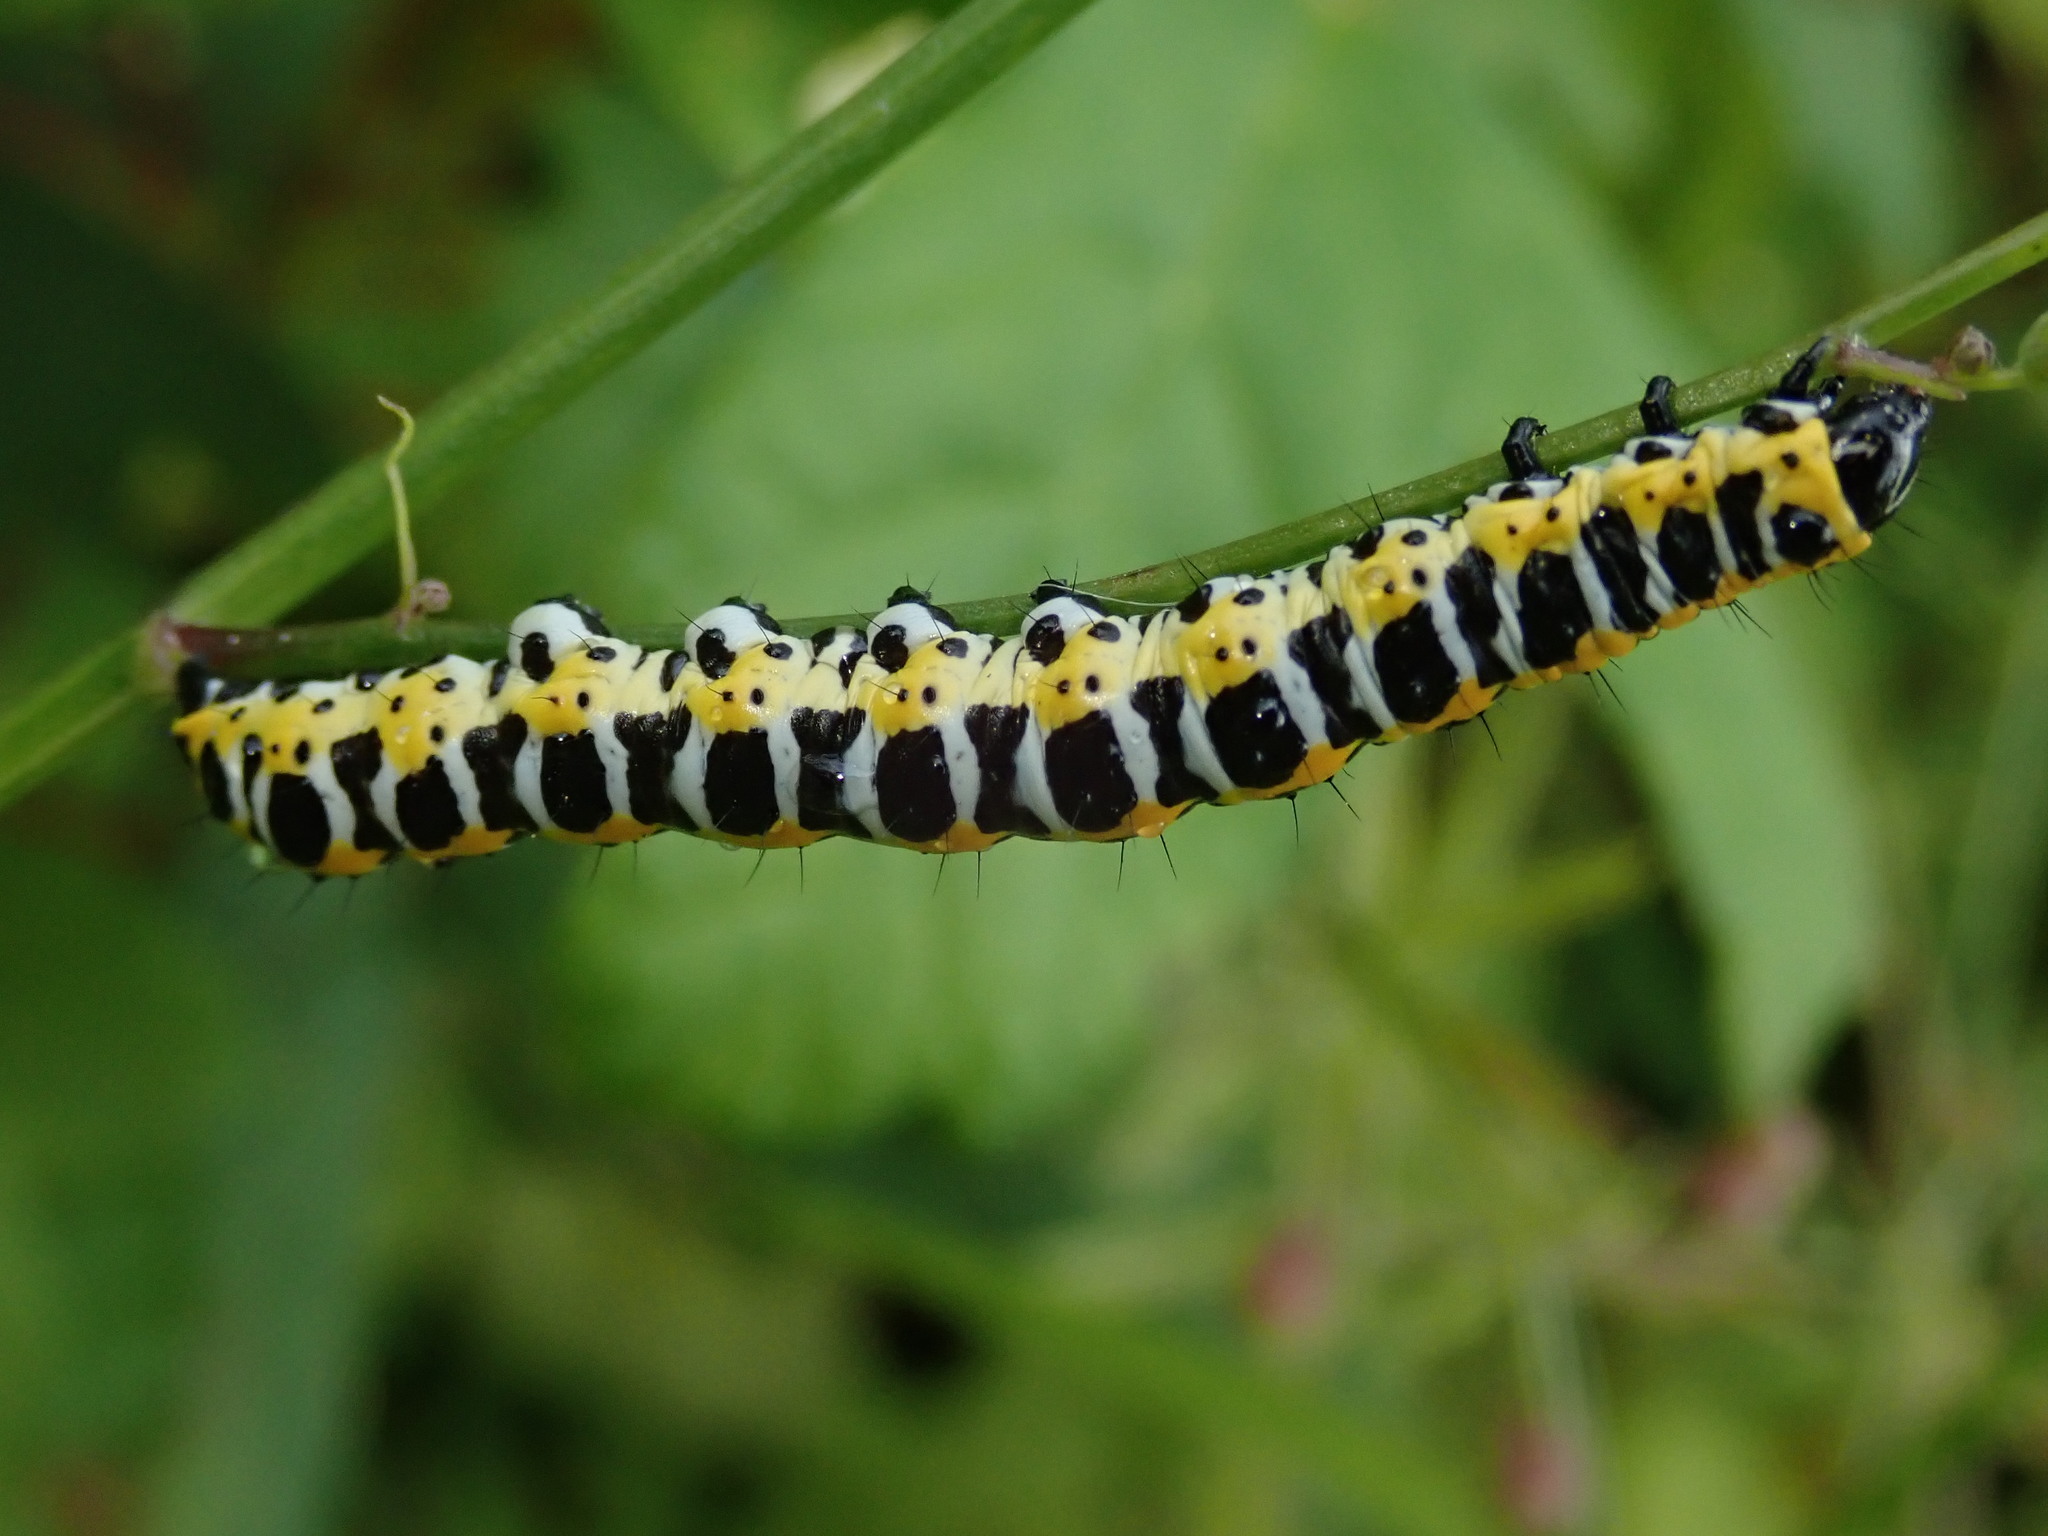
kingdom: Animalia
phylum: Arthropoda
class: Insecta
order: Lepidoptera
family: Noctuidae
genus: Cucullia
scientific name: Cucullia lactucae
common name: Lettuce shark
